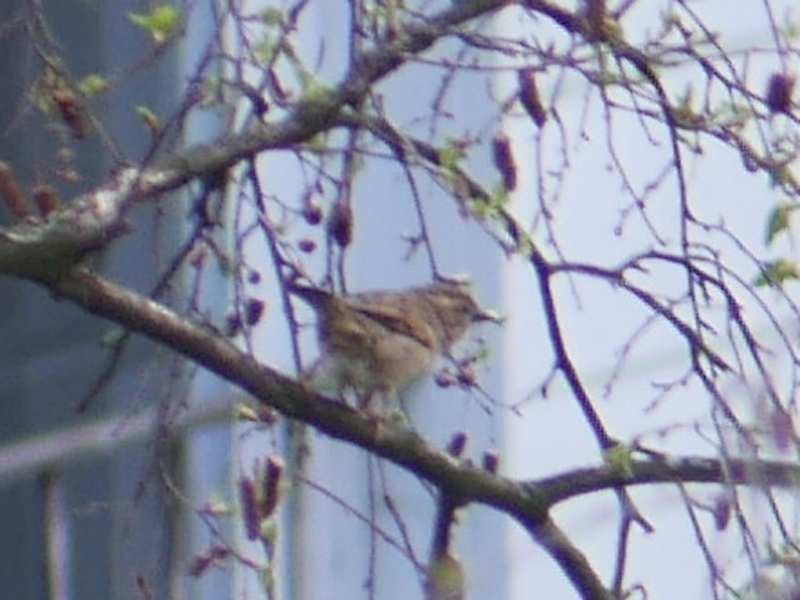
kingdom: Animalia
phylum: Chordata
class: Aves
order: Passeriformes
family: Passeridae
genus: Passer
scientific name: Passer domesticus
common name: House sparrow
